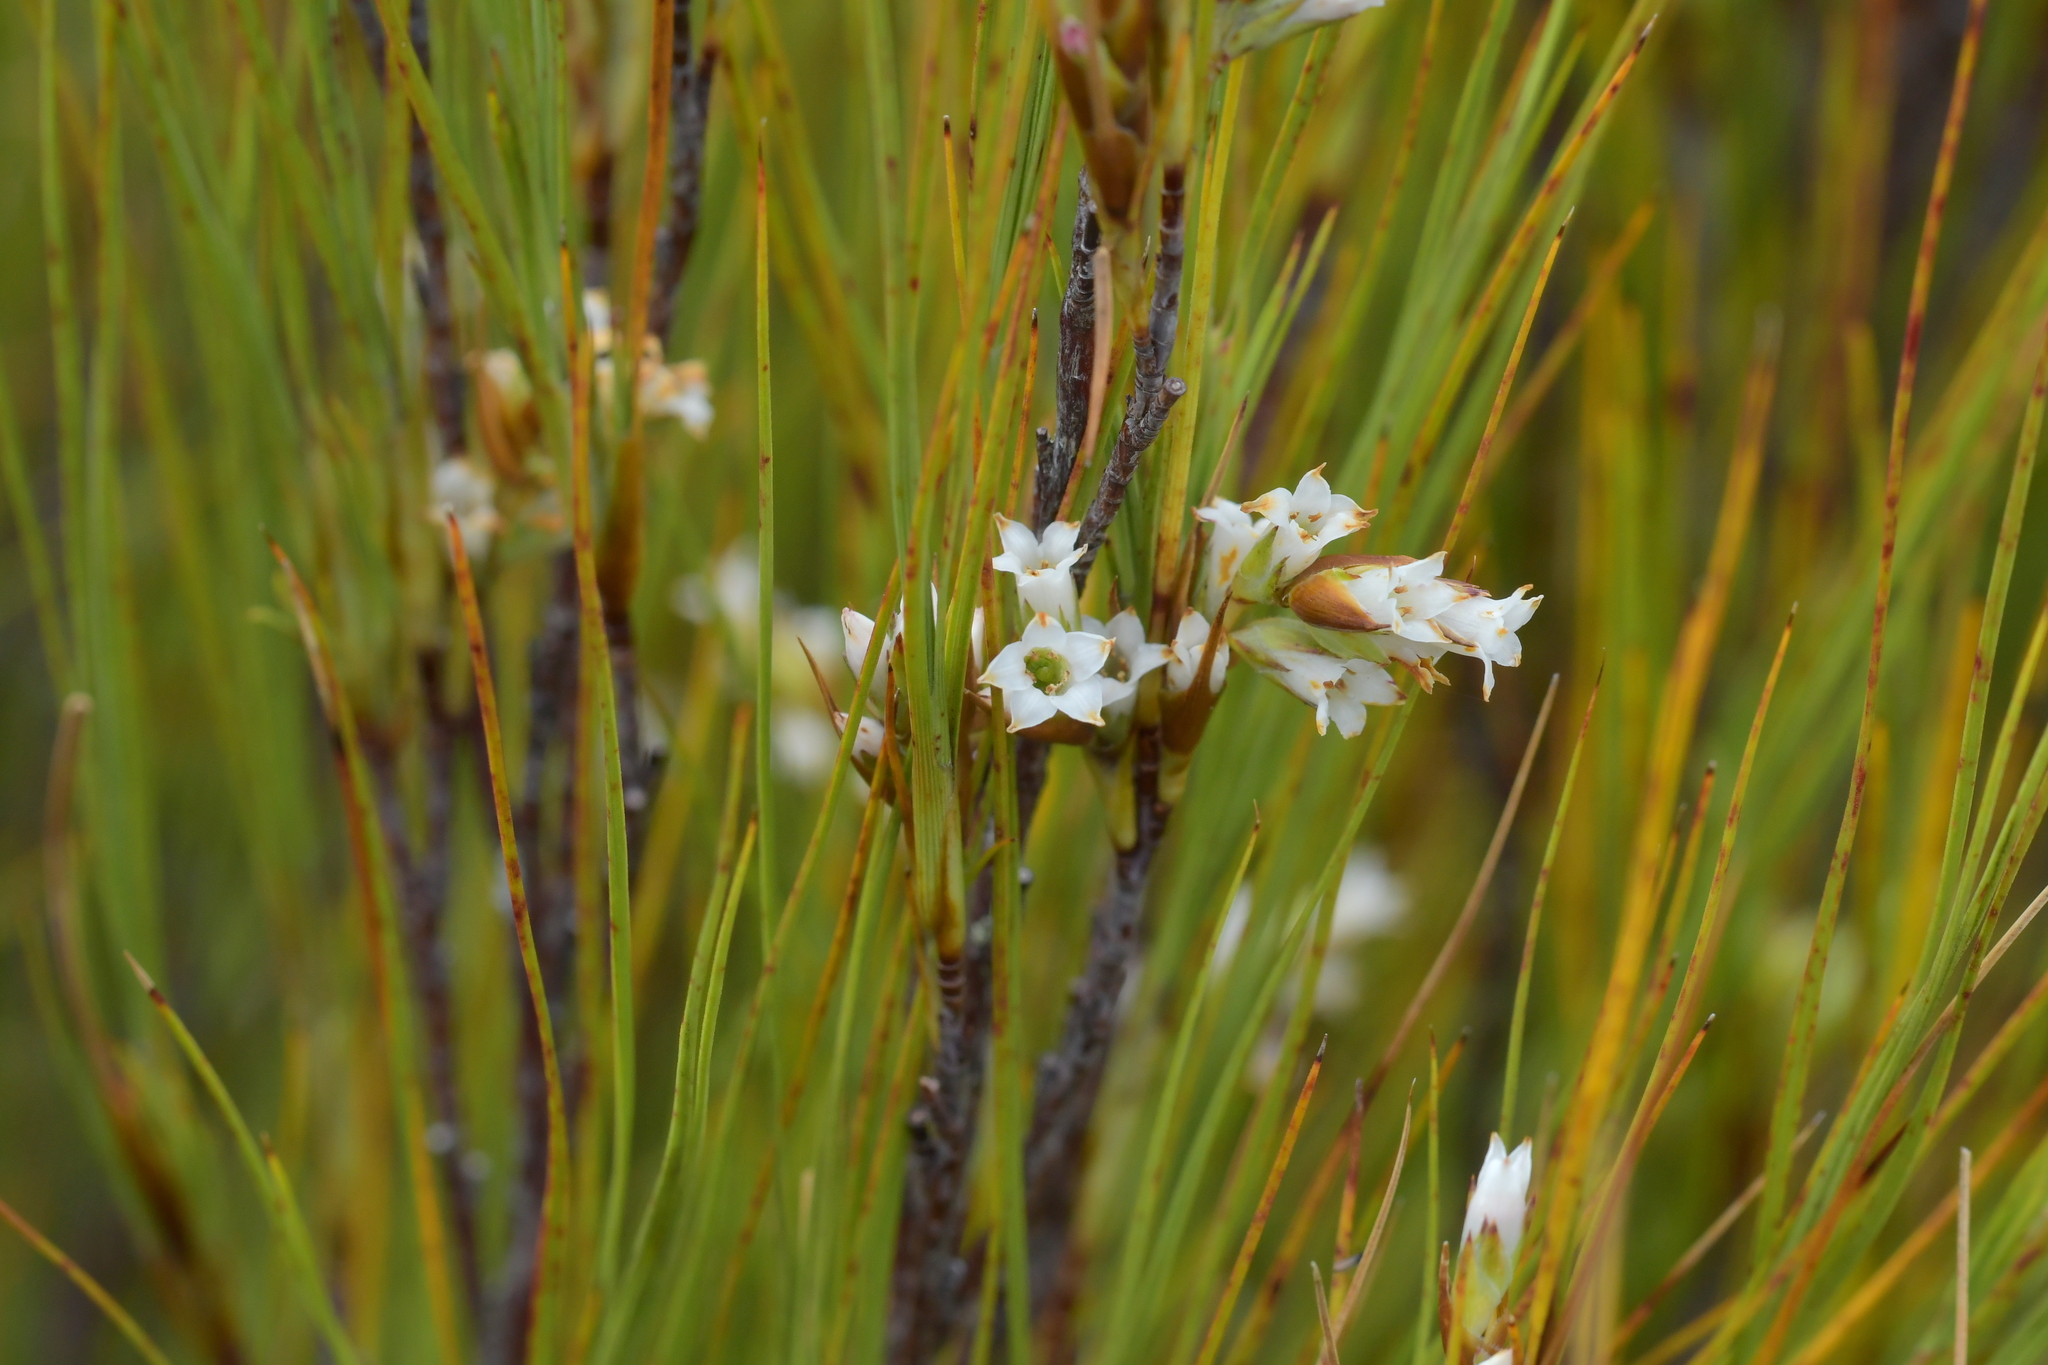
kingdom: Plantae
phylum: Tracheophyta
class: Magnoliopsida
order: Ericales
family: Ericaceae
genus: Dracophyllum
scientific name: Dracophyllum filifolium
